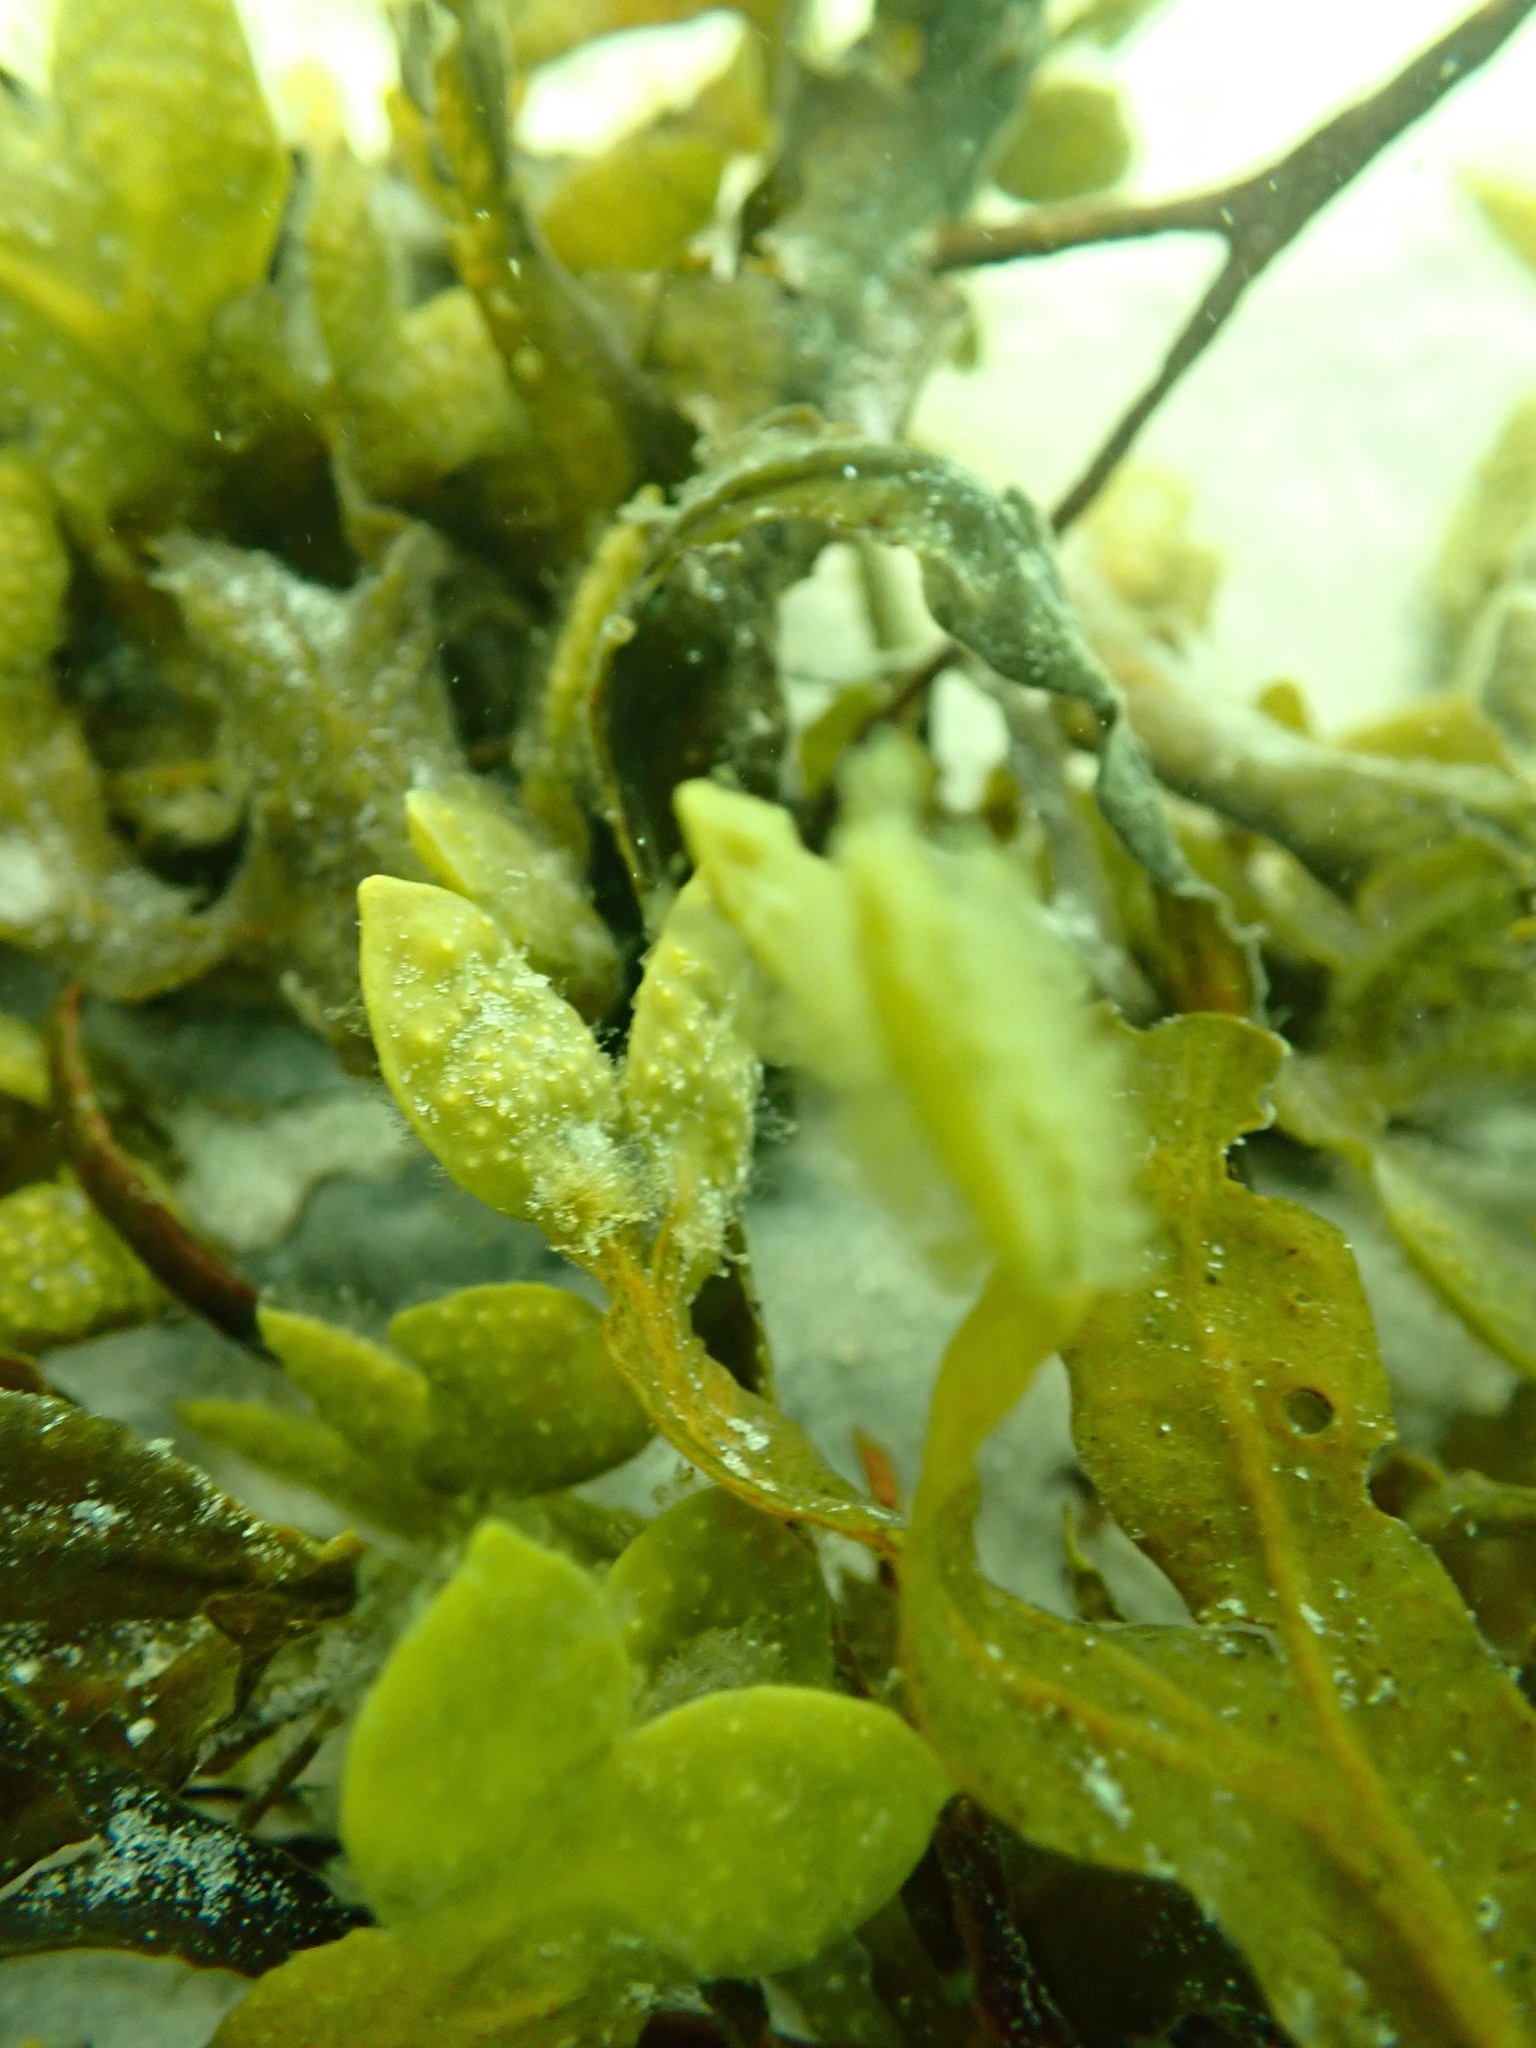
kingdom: Chromista
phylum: Ochrophyta
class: Phaeophyceae
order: Fucales
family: Fucaceae
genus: Fucus
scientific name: Fucus spiralis
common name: Spiral wrack
